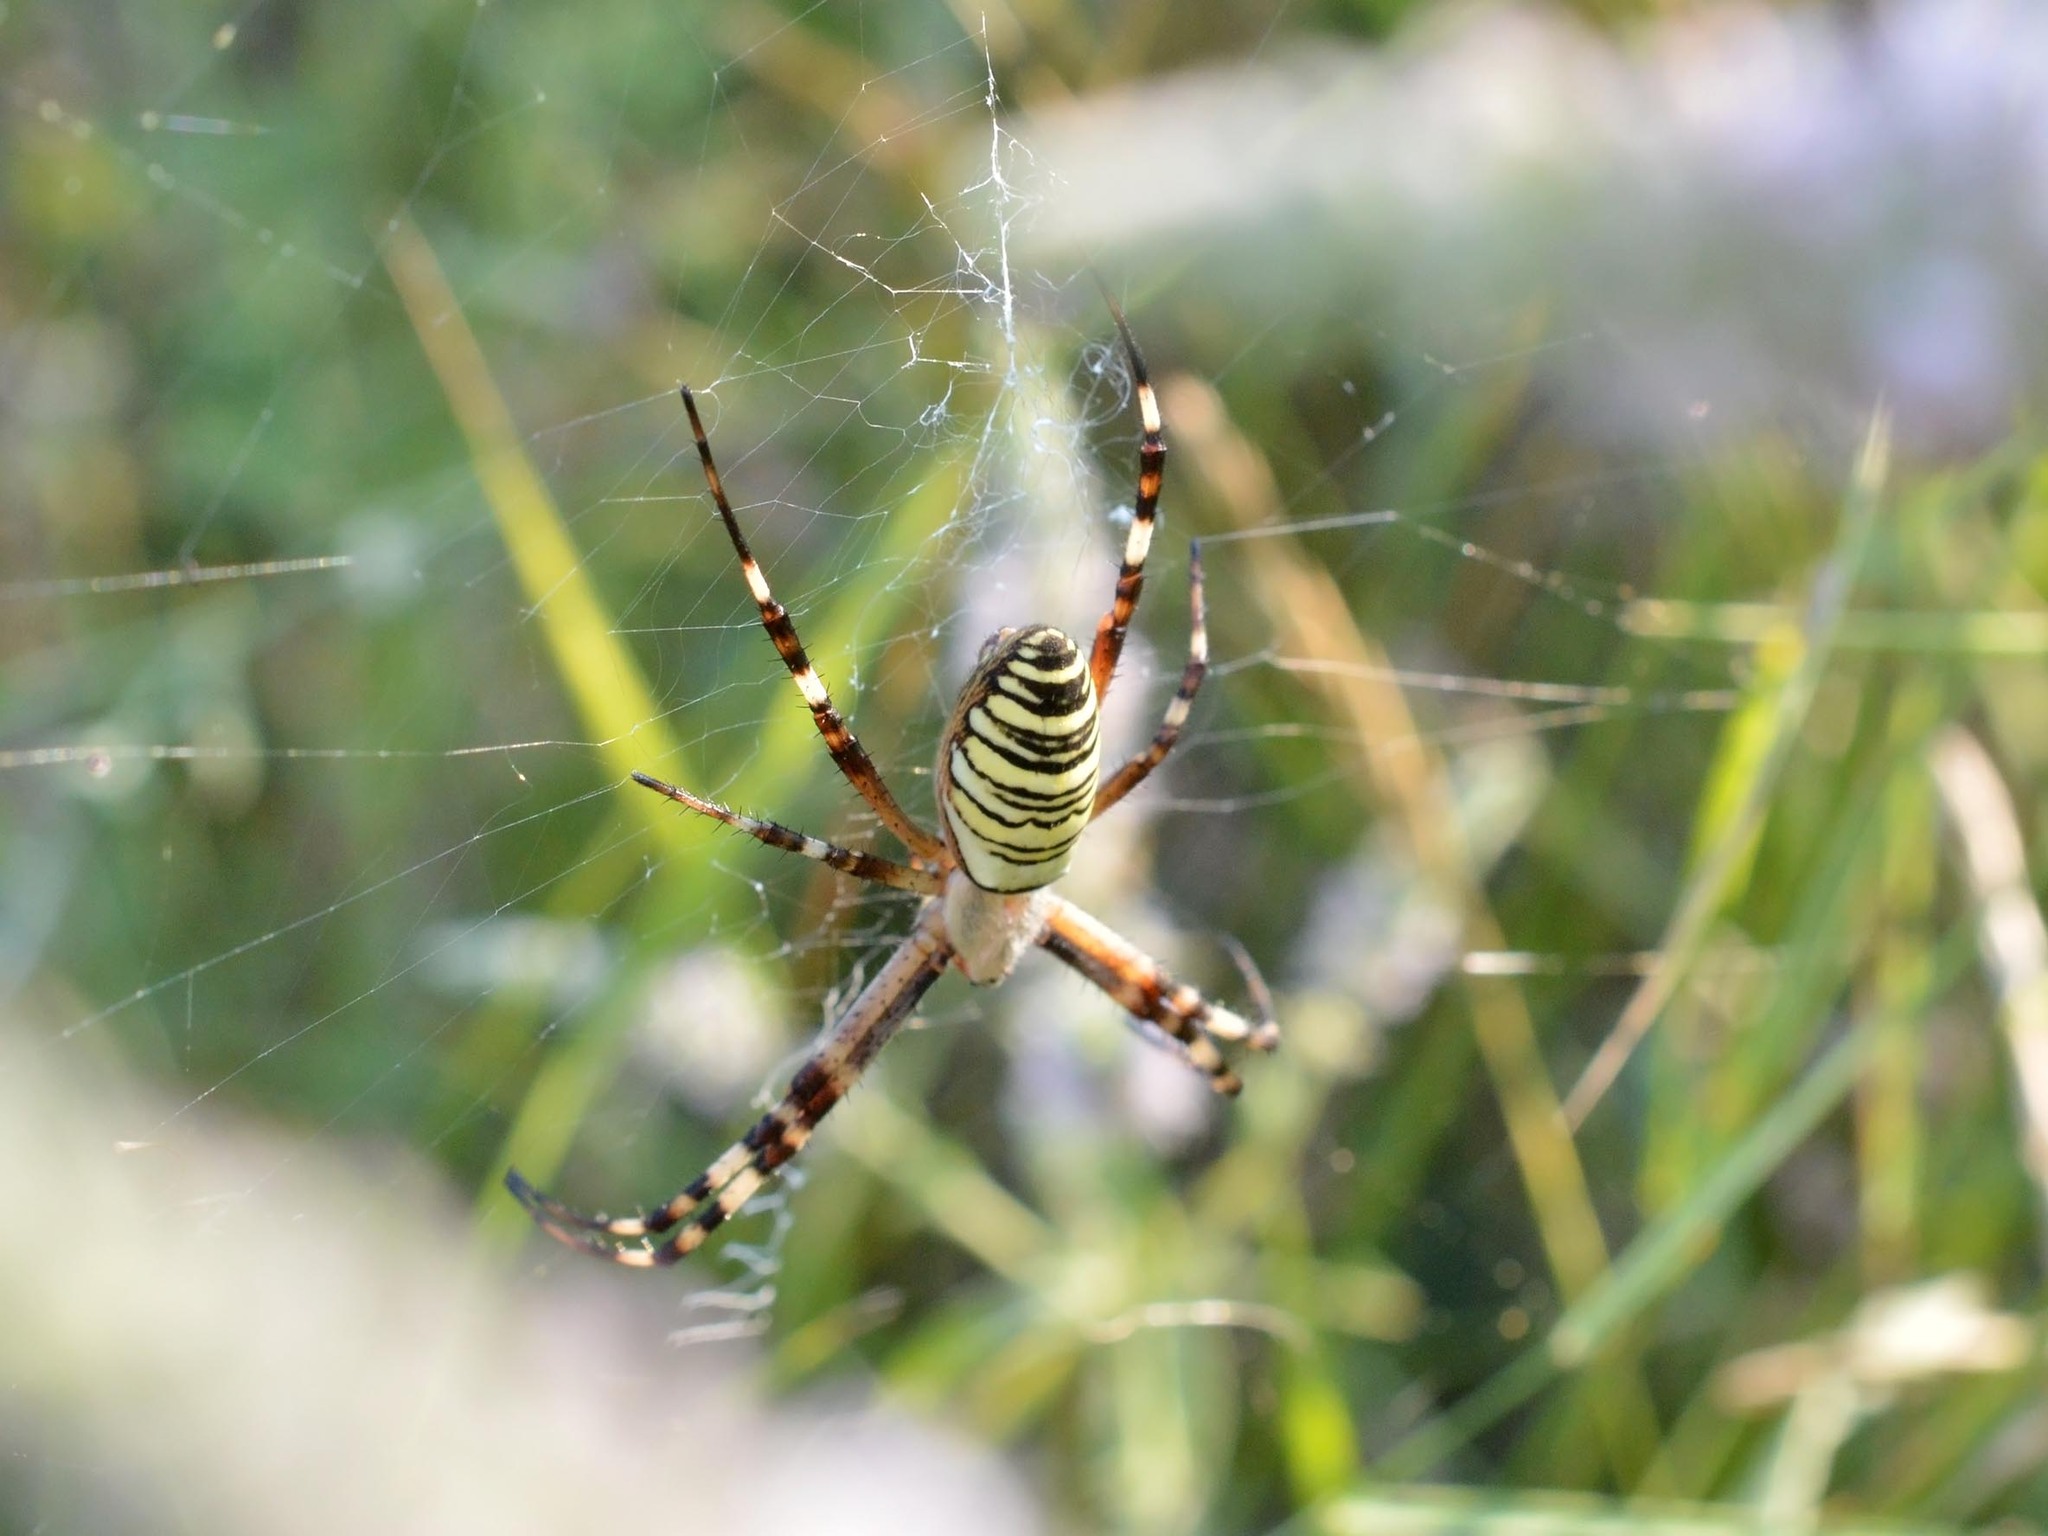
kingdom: Animalia
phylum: Arthropoda
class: Arachnida
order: Araneae
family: Araneidae
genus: Argiope
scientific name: Argiope bruennichi
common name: Wasp spider
